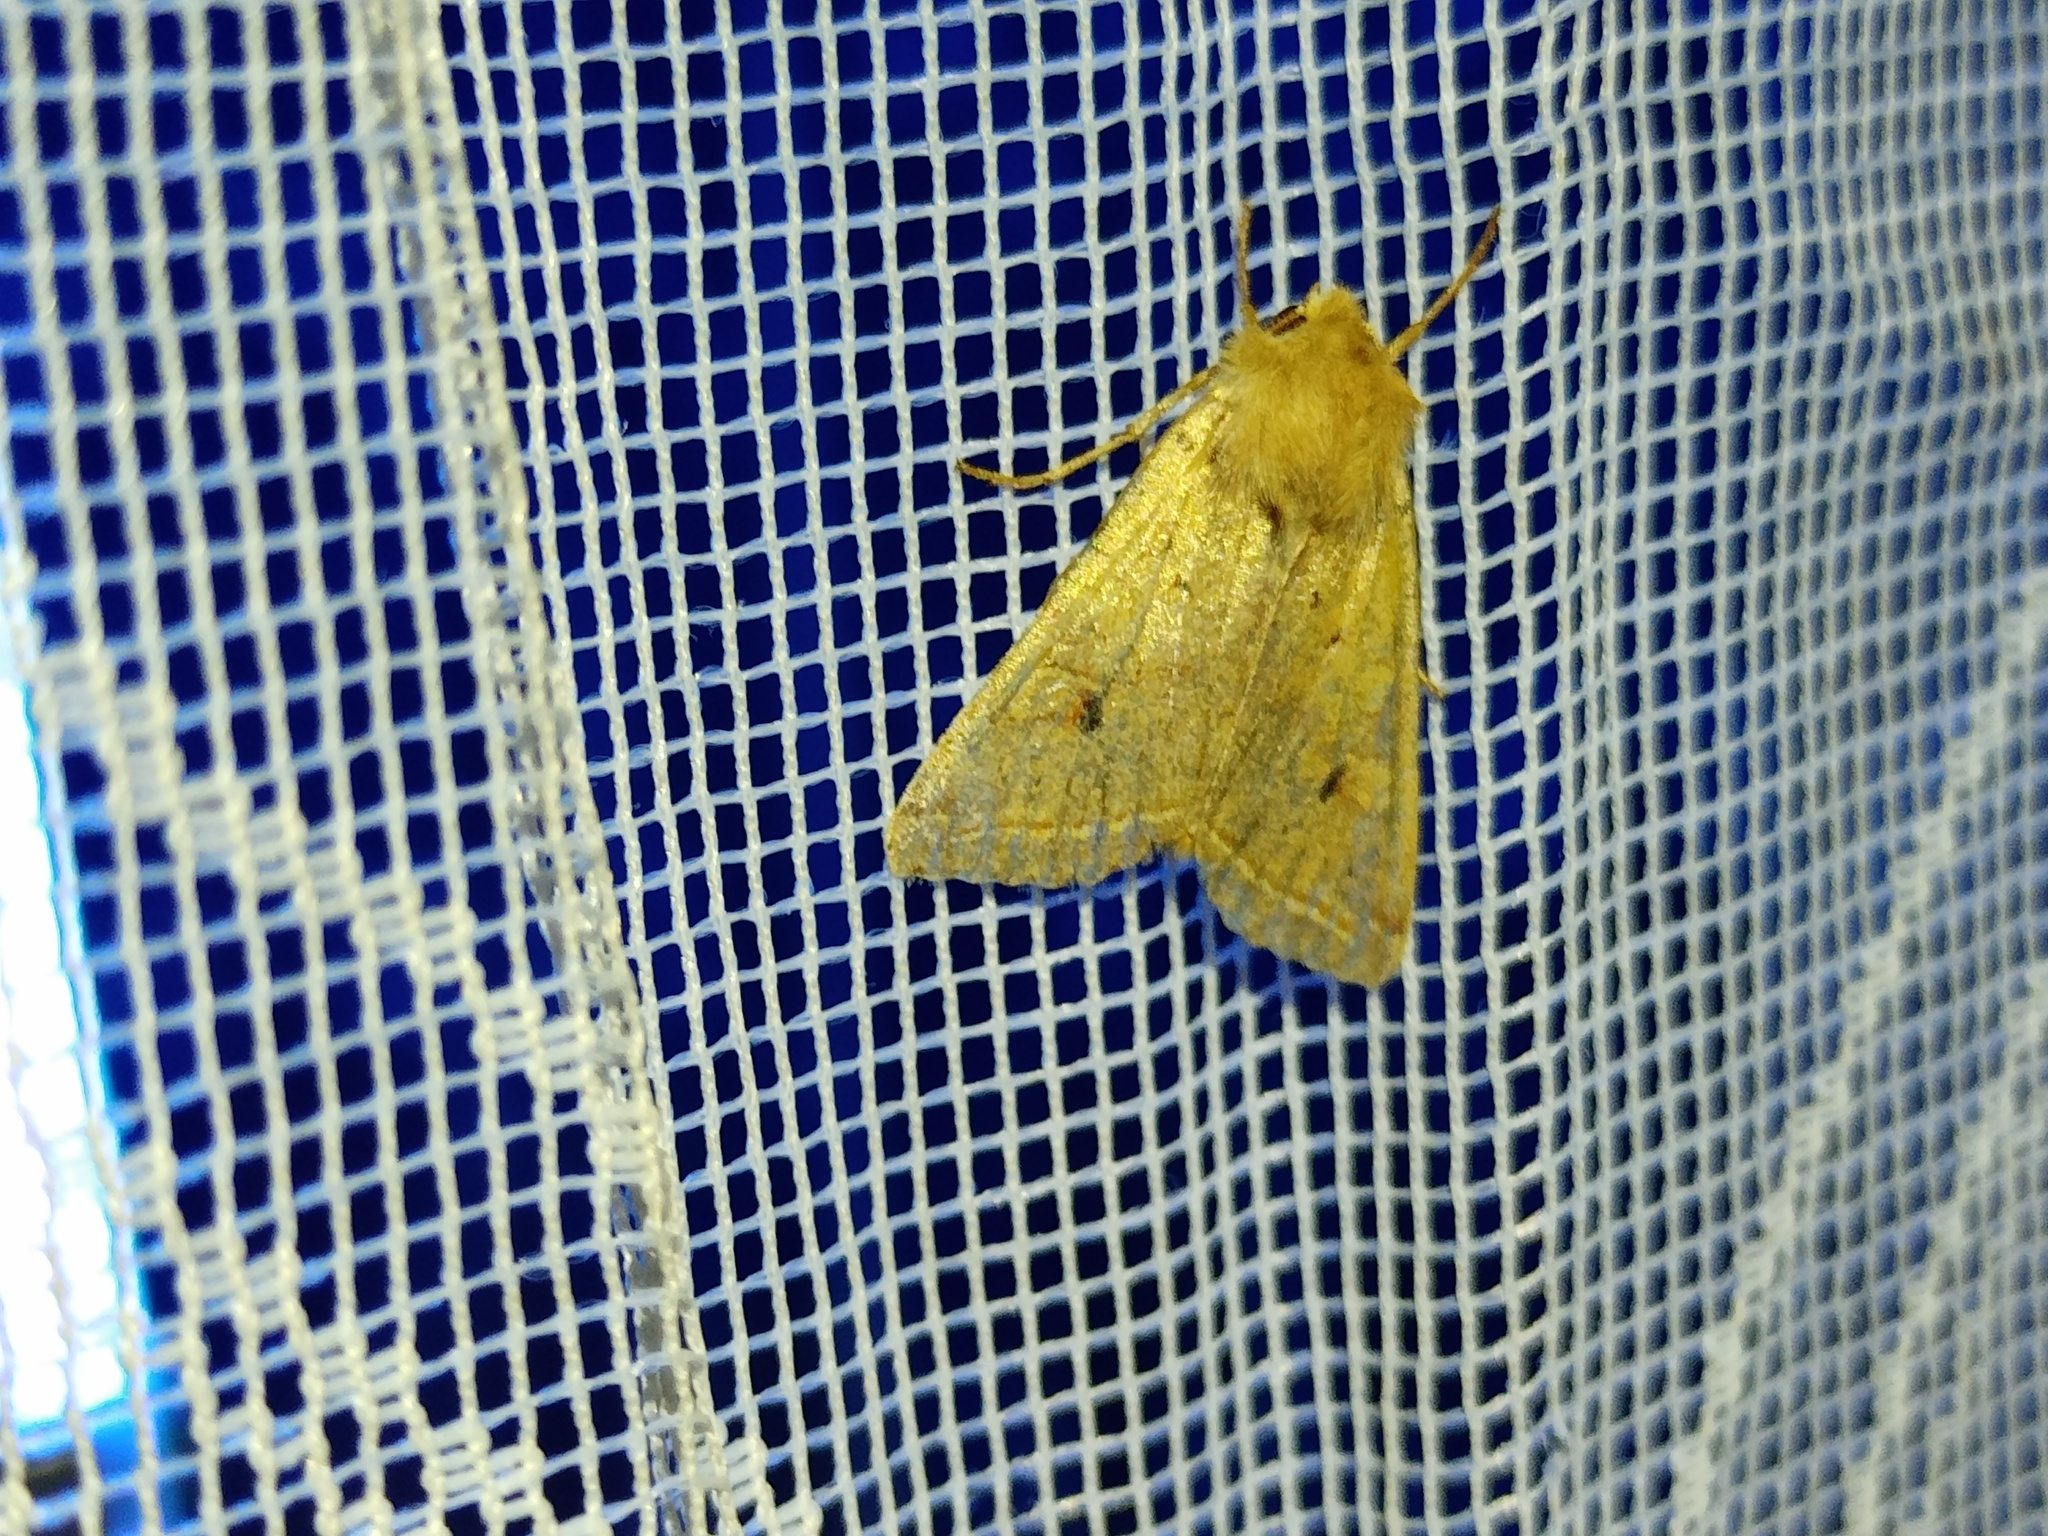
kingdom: Animalia
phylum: Arthropoda
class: Insecta
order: Lepidoptera
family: Noctuidae
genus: Agrochola
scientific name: Agrochola macilenta
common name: Yellow-line quaker
